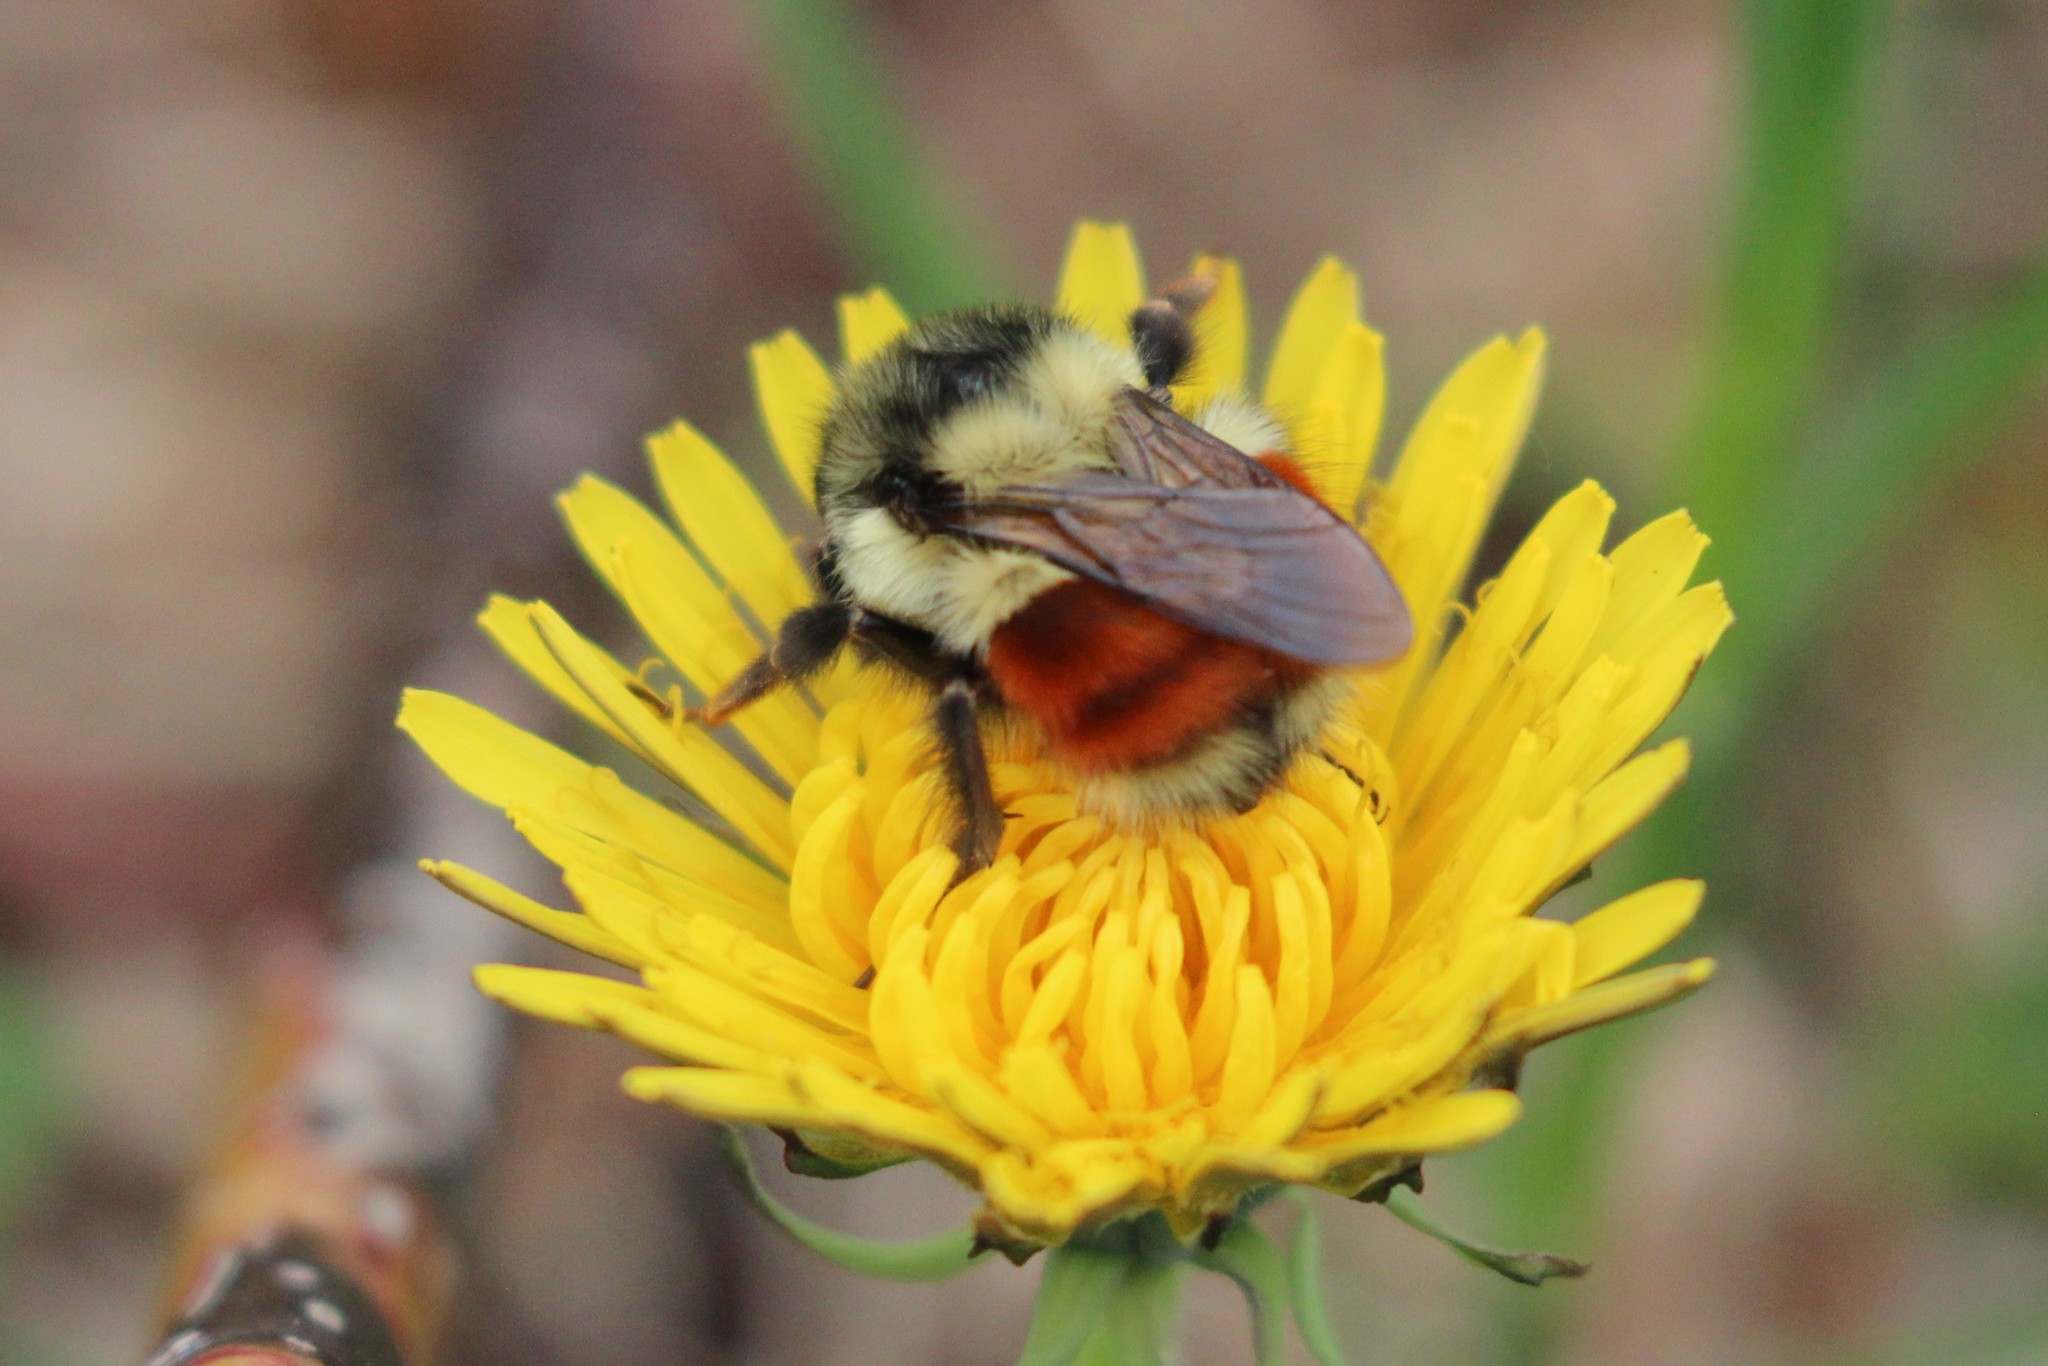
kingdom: Animalia
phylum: Arthropoda
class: Insecta
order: Hymenoptera
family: Apidae
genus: Bombus
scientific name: Bombus melanopygus
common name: Black tail bumble bee
